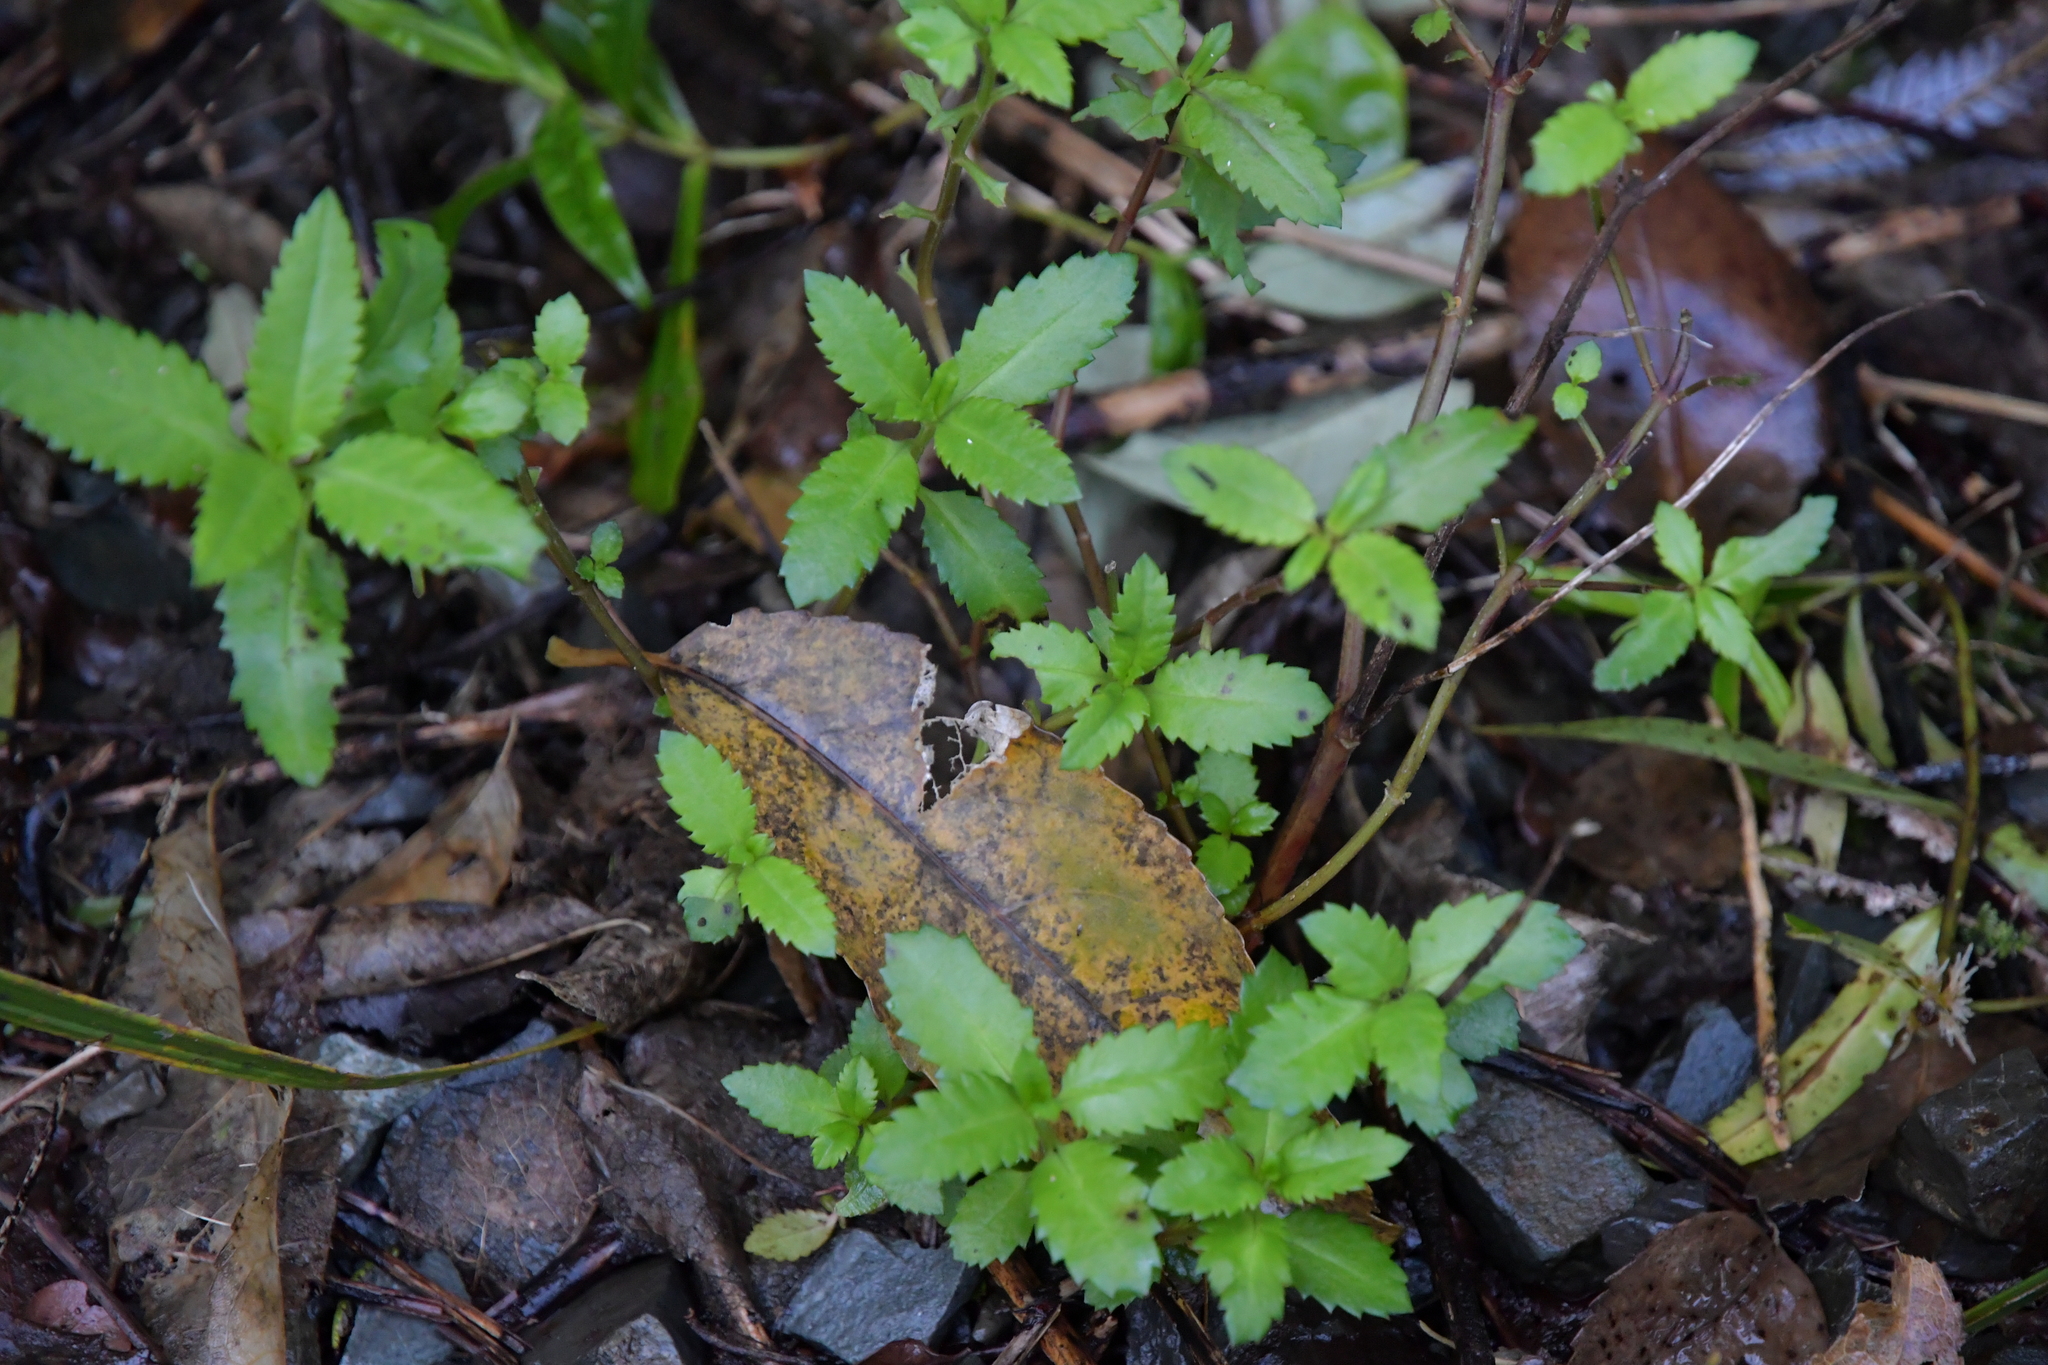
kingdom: Plantae
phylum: Tracheophyta
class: Magnoliopsida
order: Saxifragales
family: Haloragaceae
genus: Haloragis
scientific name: Haloragis erecta
